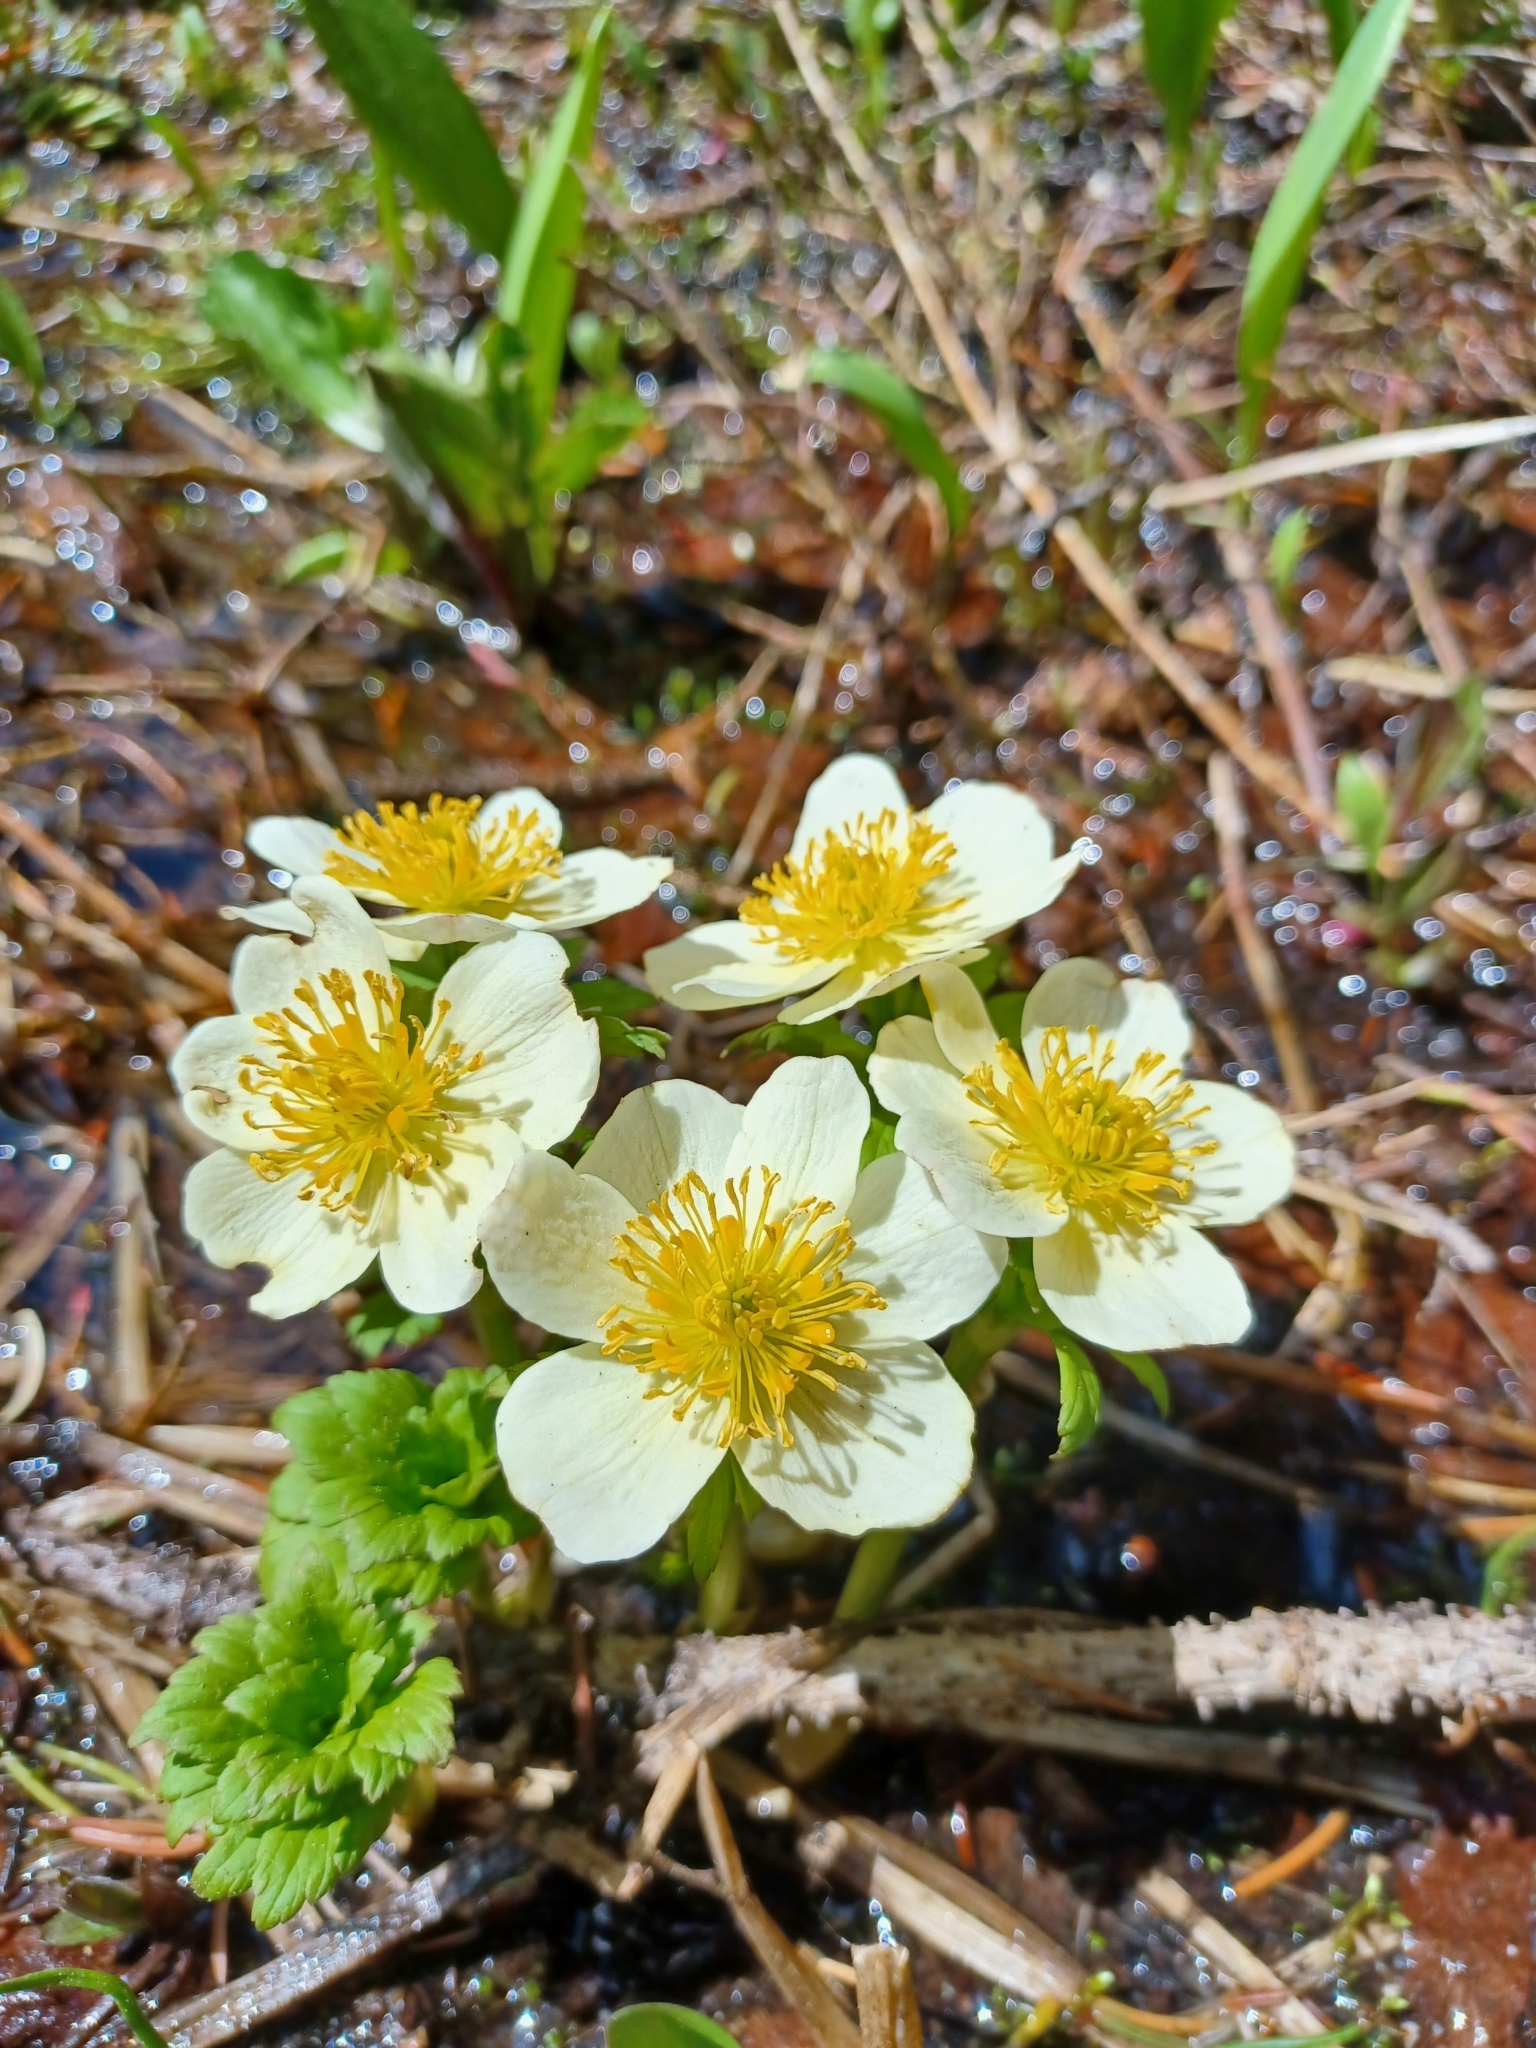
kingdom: Plantae
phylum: Tracheophyta
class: Magnoliopsida
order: Ranunculales
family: Ranunculaceae
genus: Trollius
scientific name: Trollius laxus
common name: American globeflower
